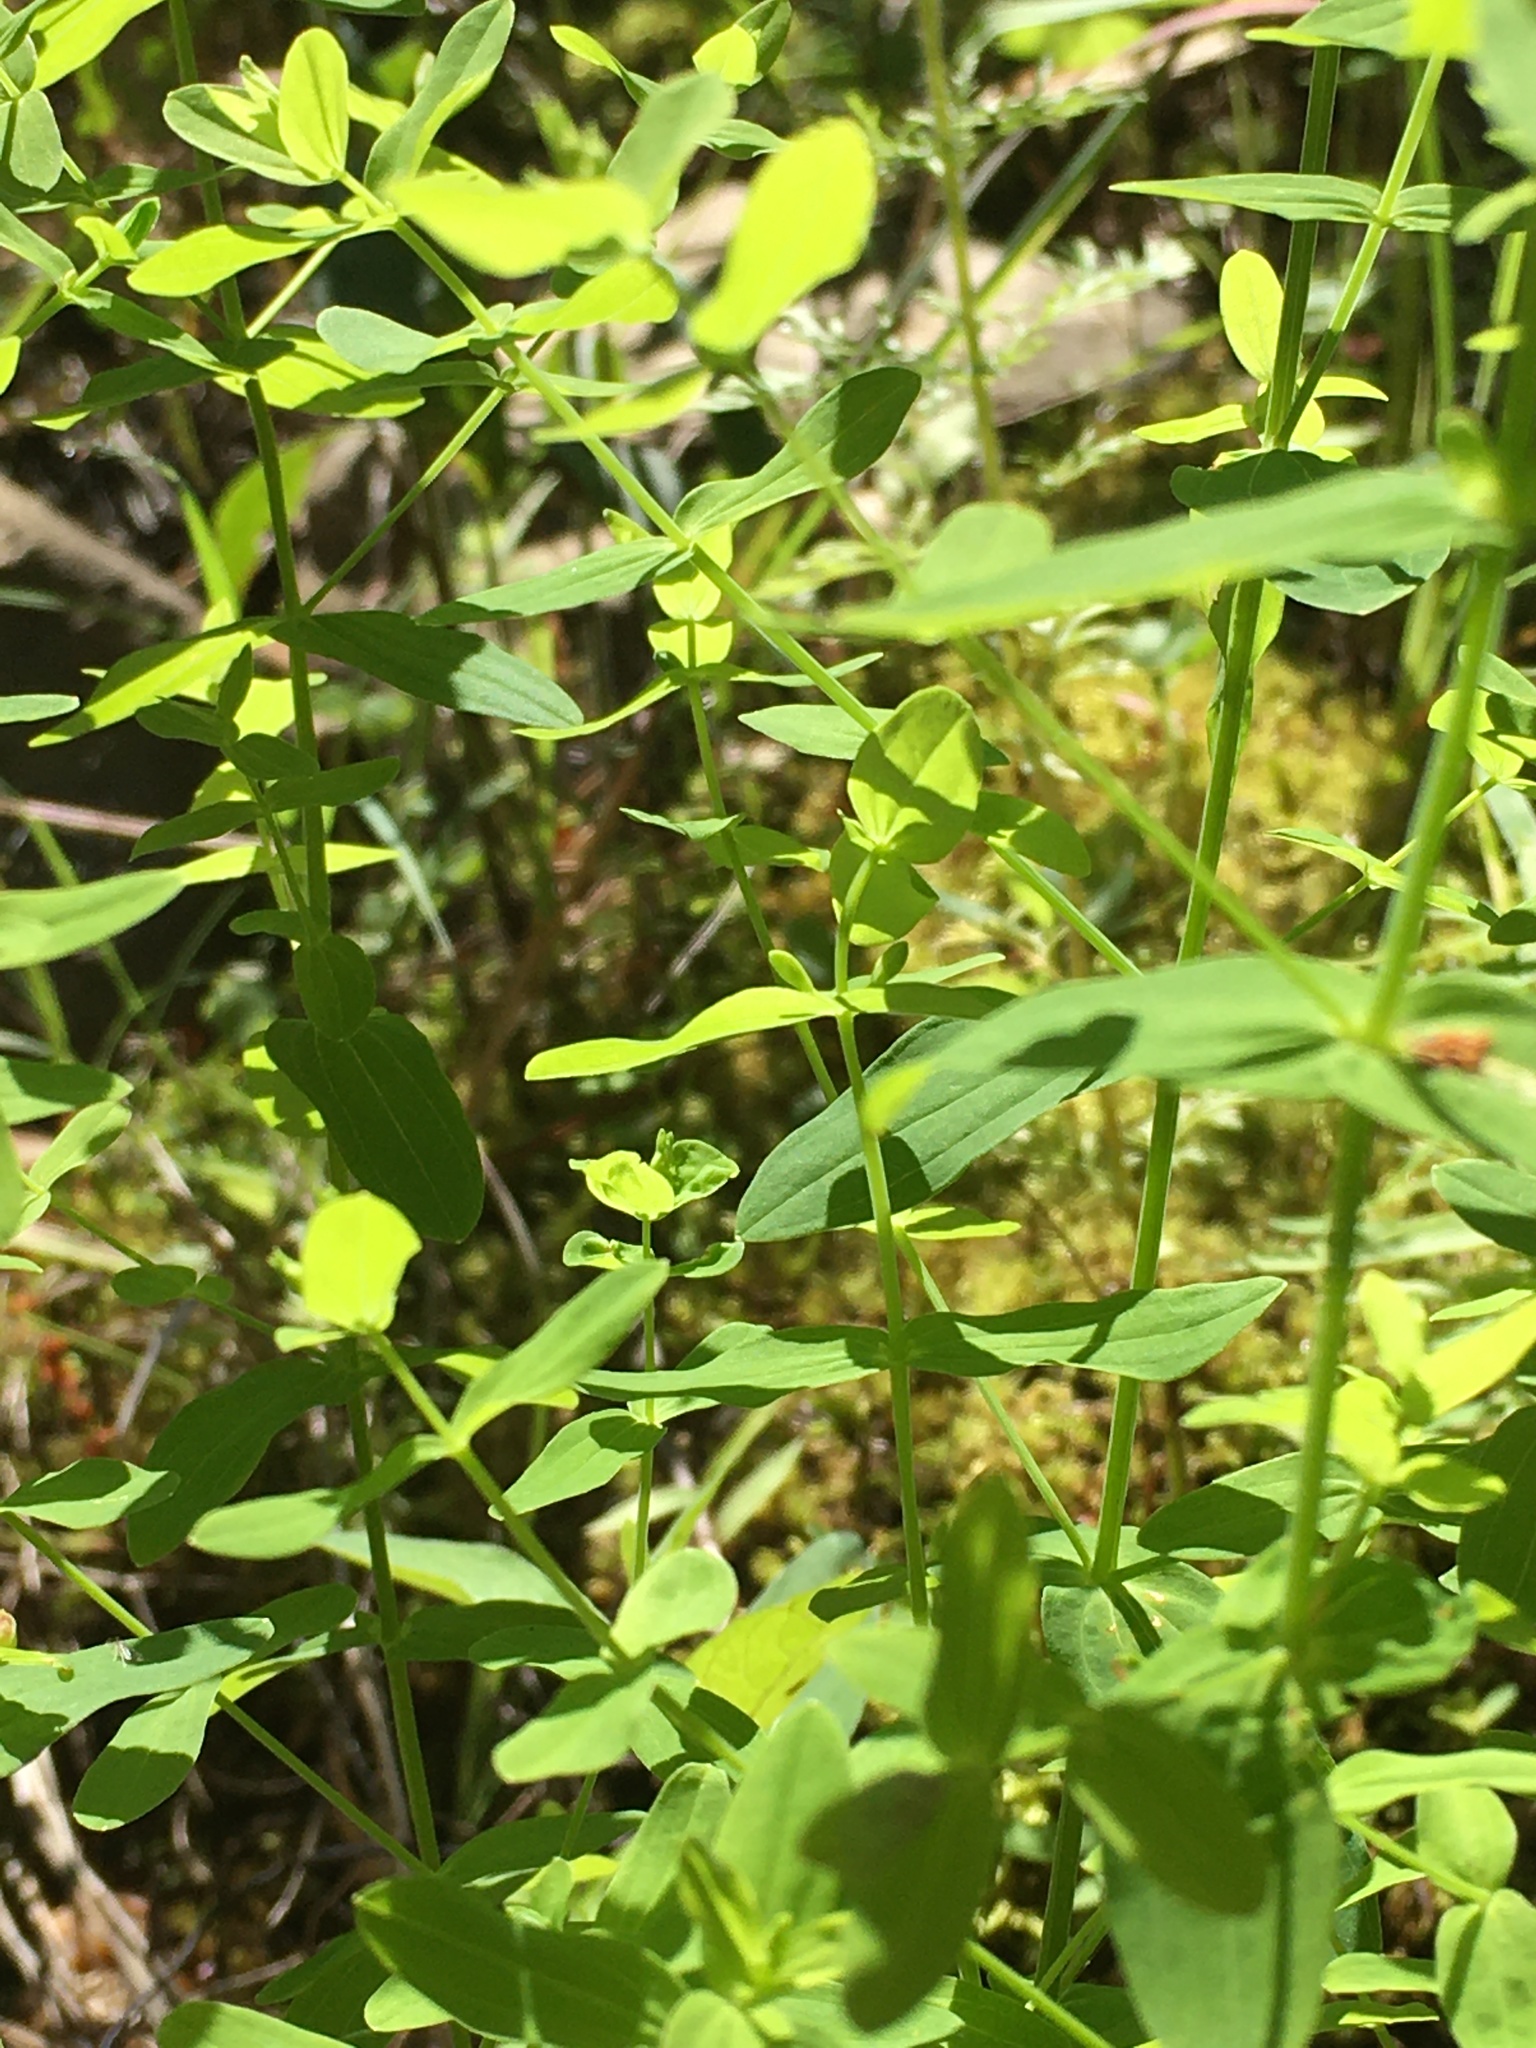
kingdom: Plantae
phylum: Tracheophyta
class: Magnoliopsida
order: Malpighiales
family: Hypericaceae
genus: Hypericum
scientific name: Hypericum mutilum
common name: Dwarf st. john's-wort
